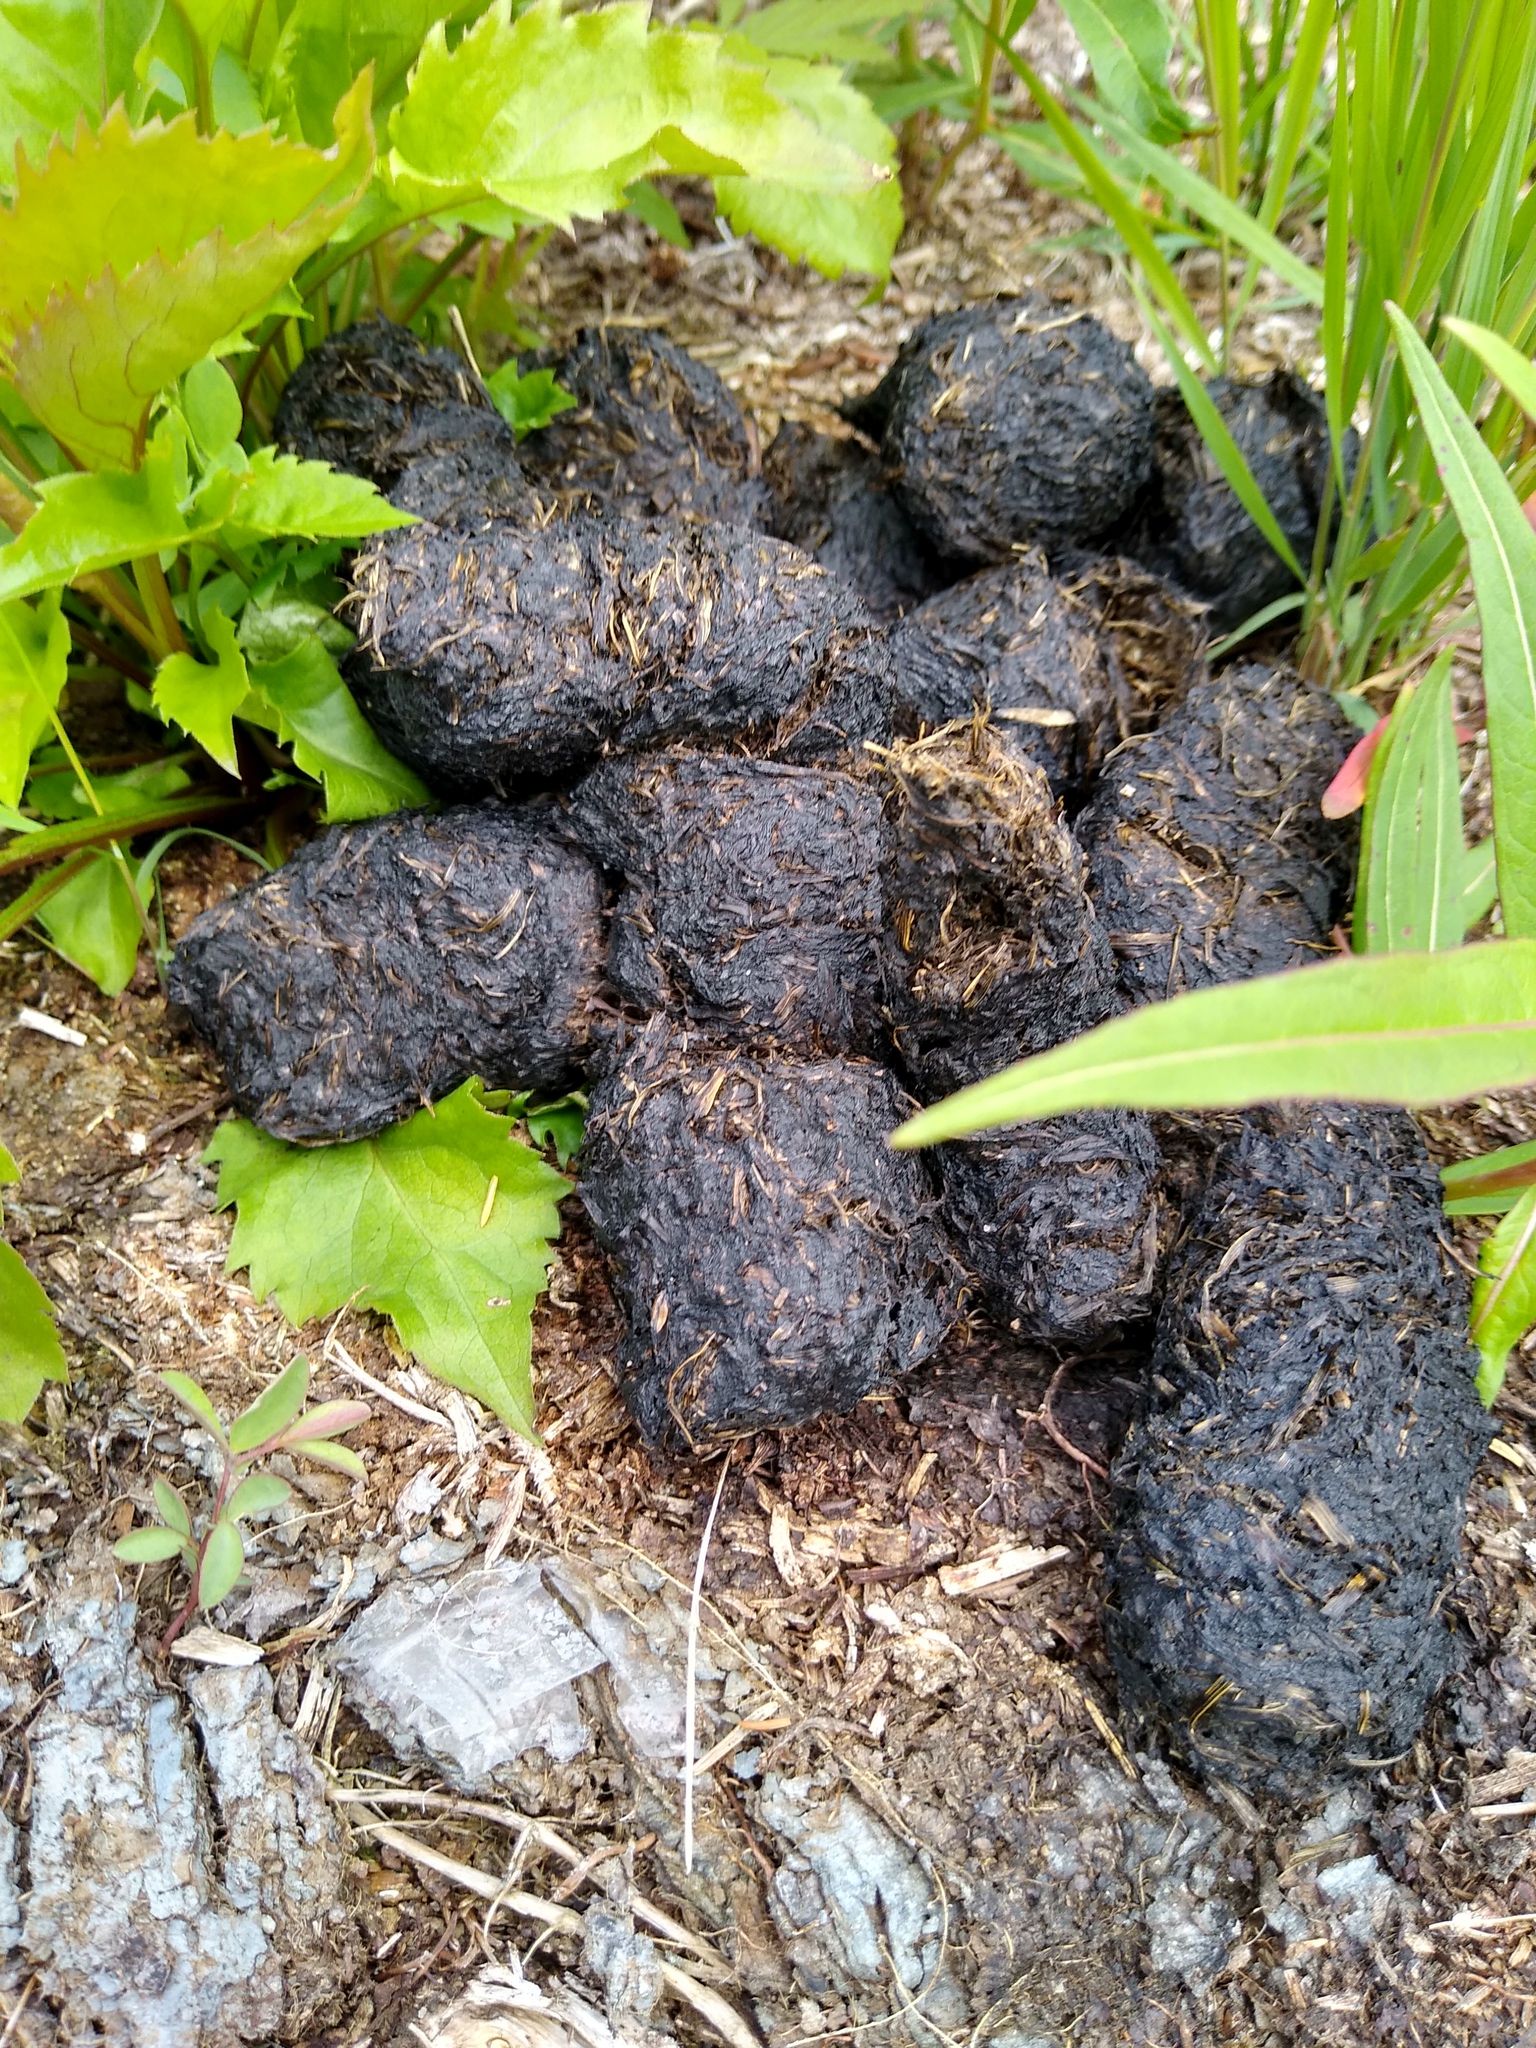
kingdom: Animalia
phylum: Chordata
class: Mammalia
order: Carnivora
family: Ursidae
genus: Ursus
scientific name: Ursus americanus
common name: American black bear
